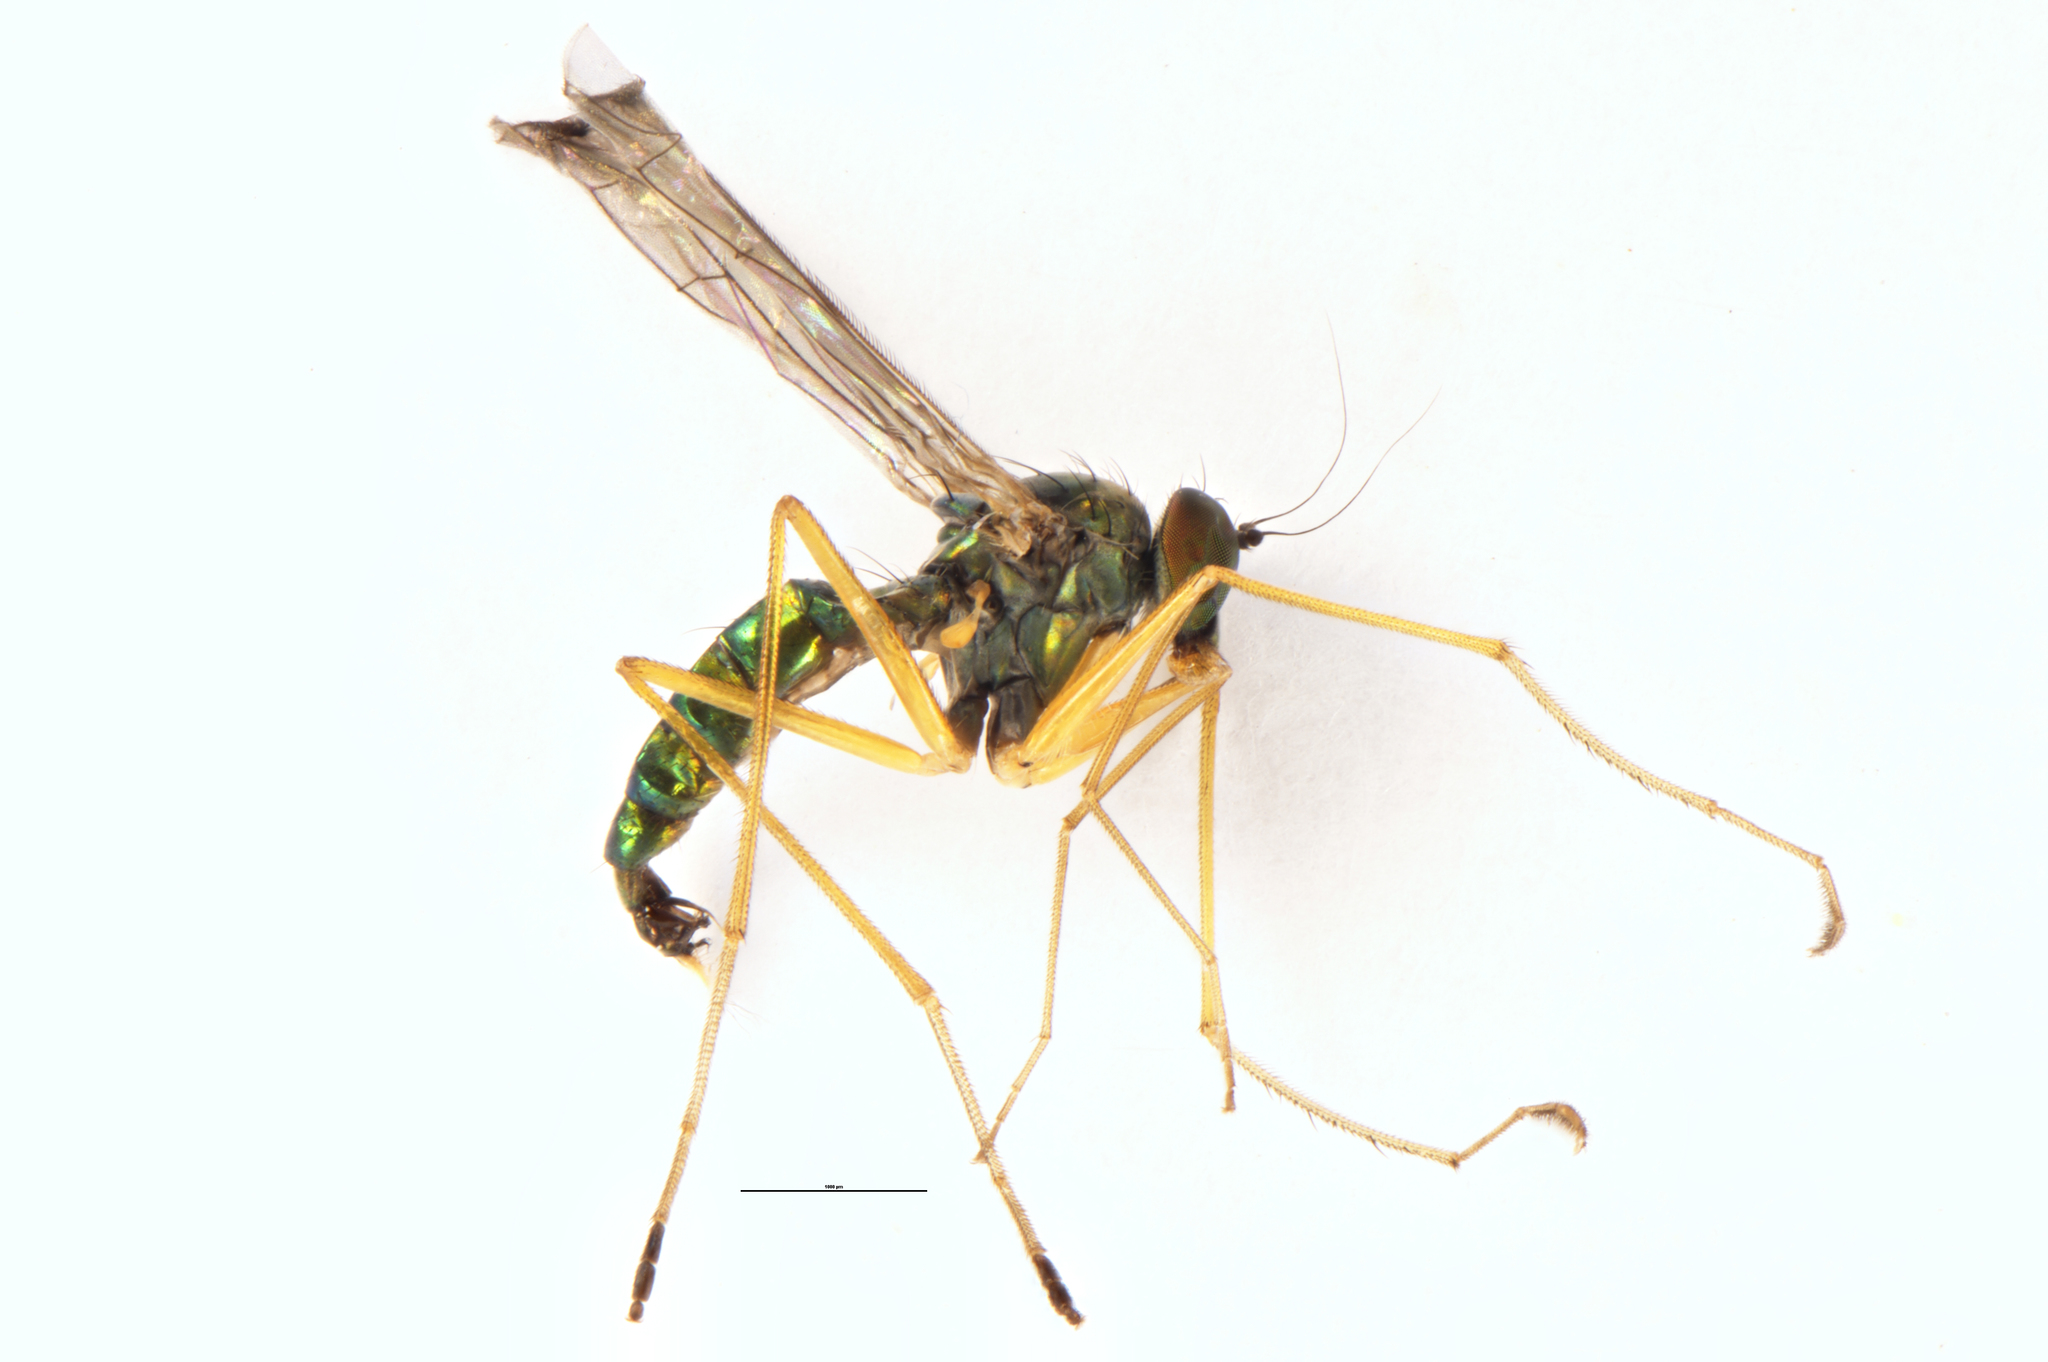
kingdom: Animalia
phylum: Arthropoda
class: Insecta
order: Diptera
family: Dolichopodidae
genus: Parentia
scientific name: Parentia anomalicosta
